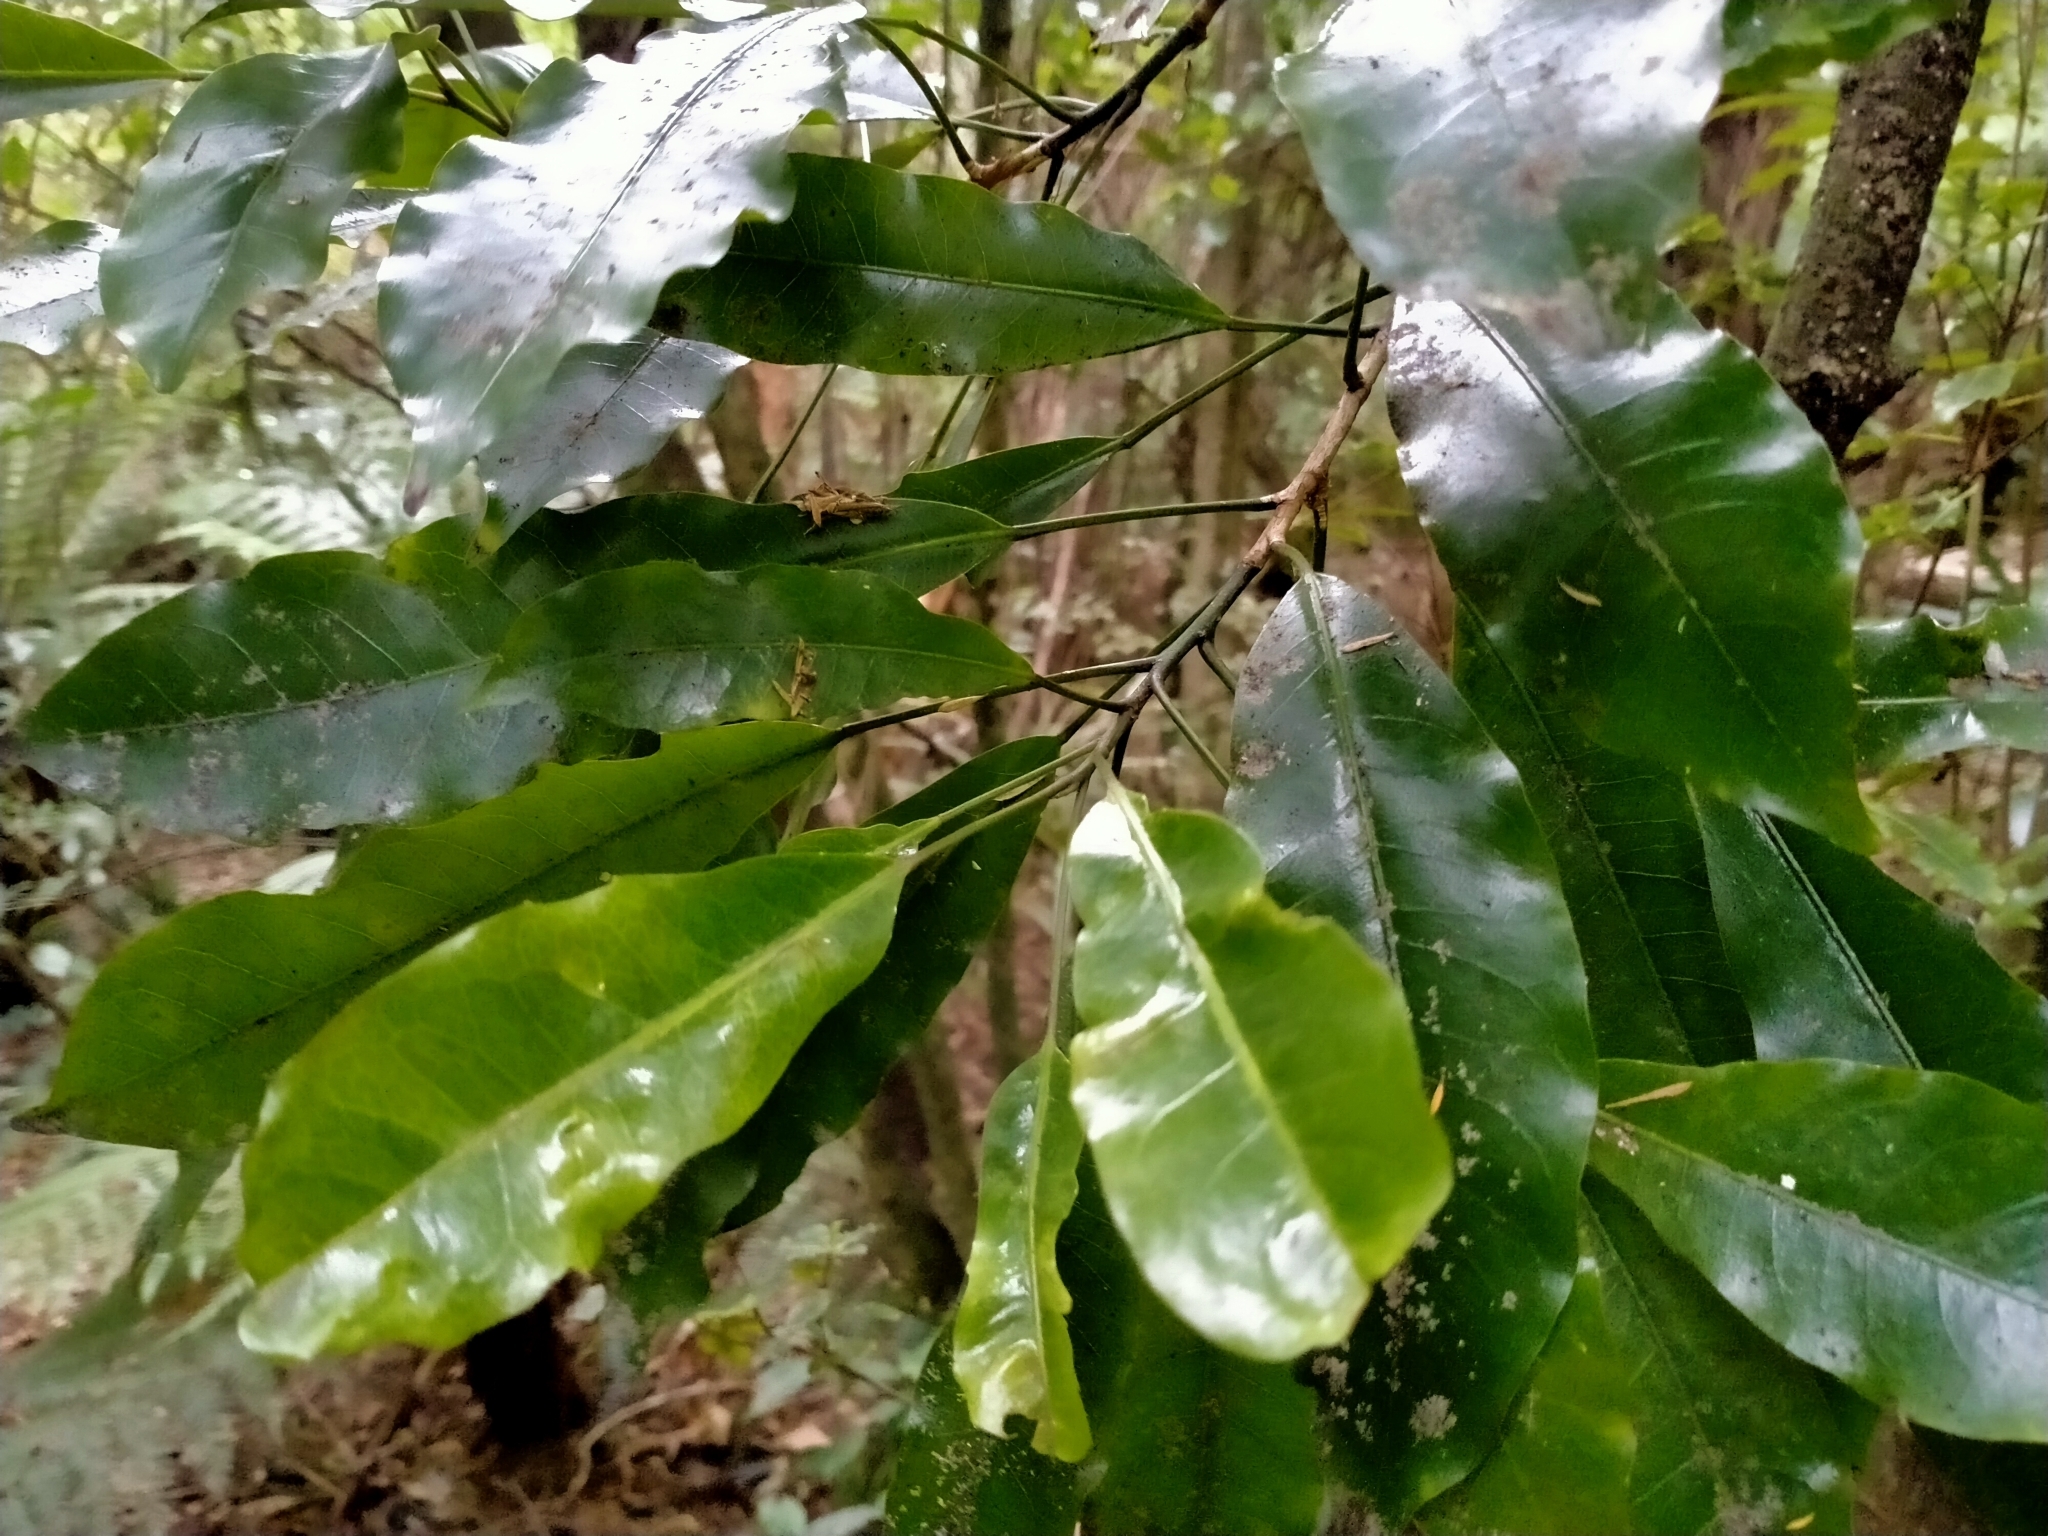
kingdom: Plantae
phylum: Tracheophyta
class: Magnoliopsida
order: Apiales
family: Araliaceae
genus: Raukaua
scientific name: Raukaua edgerleyi
